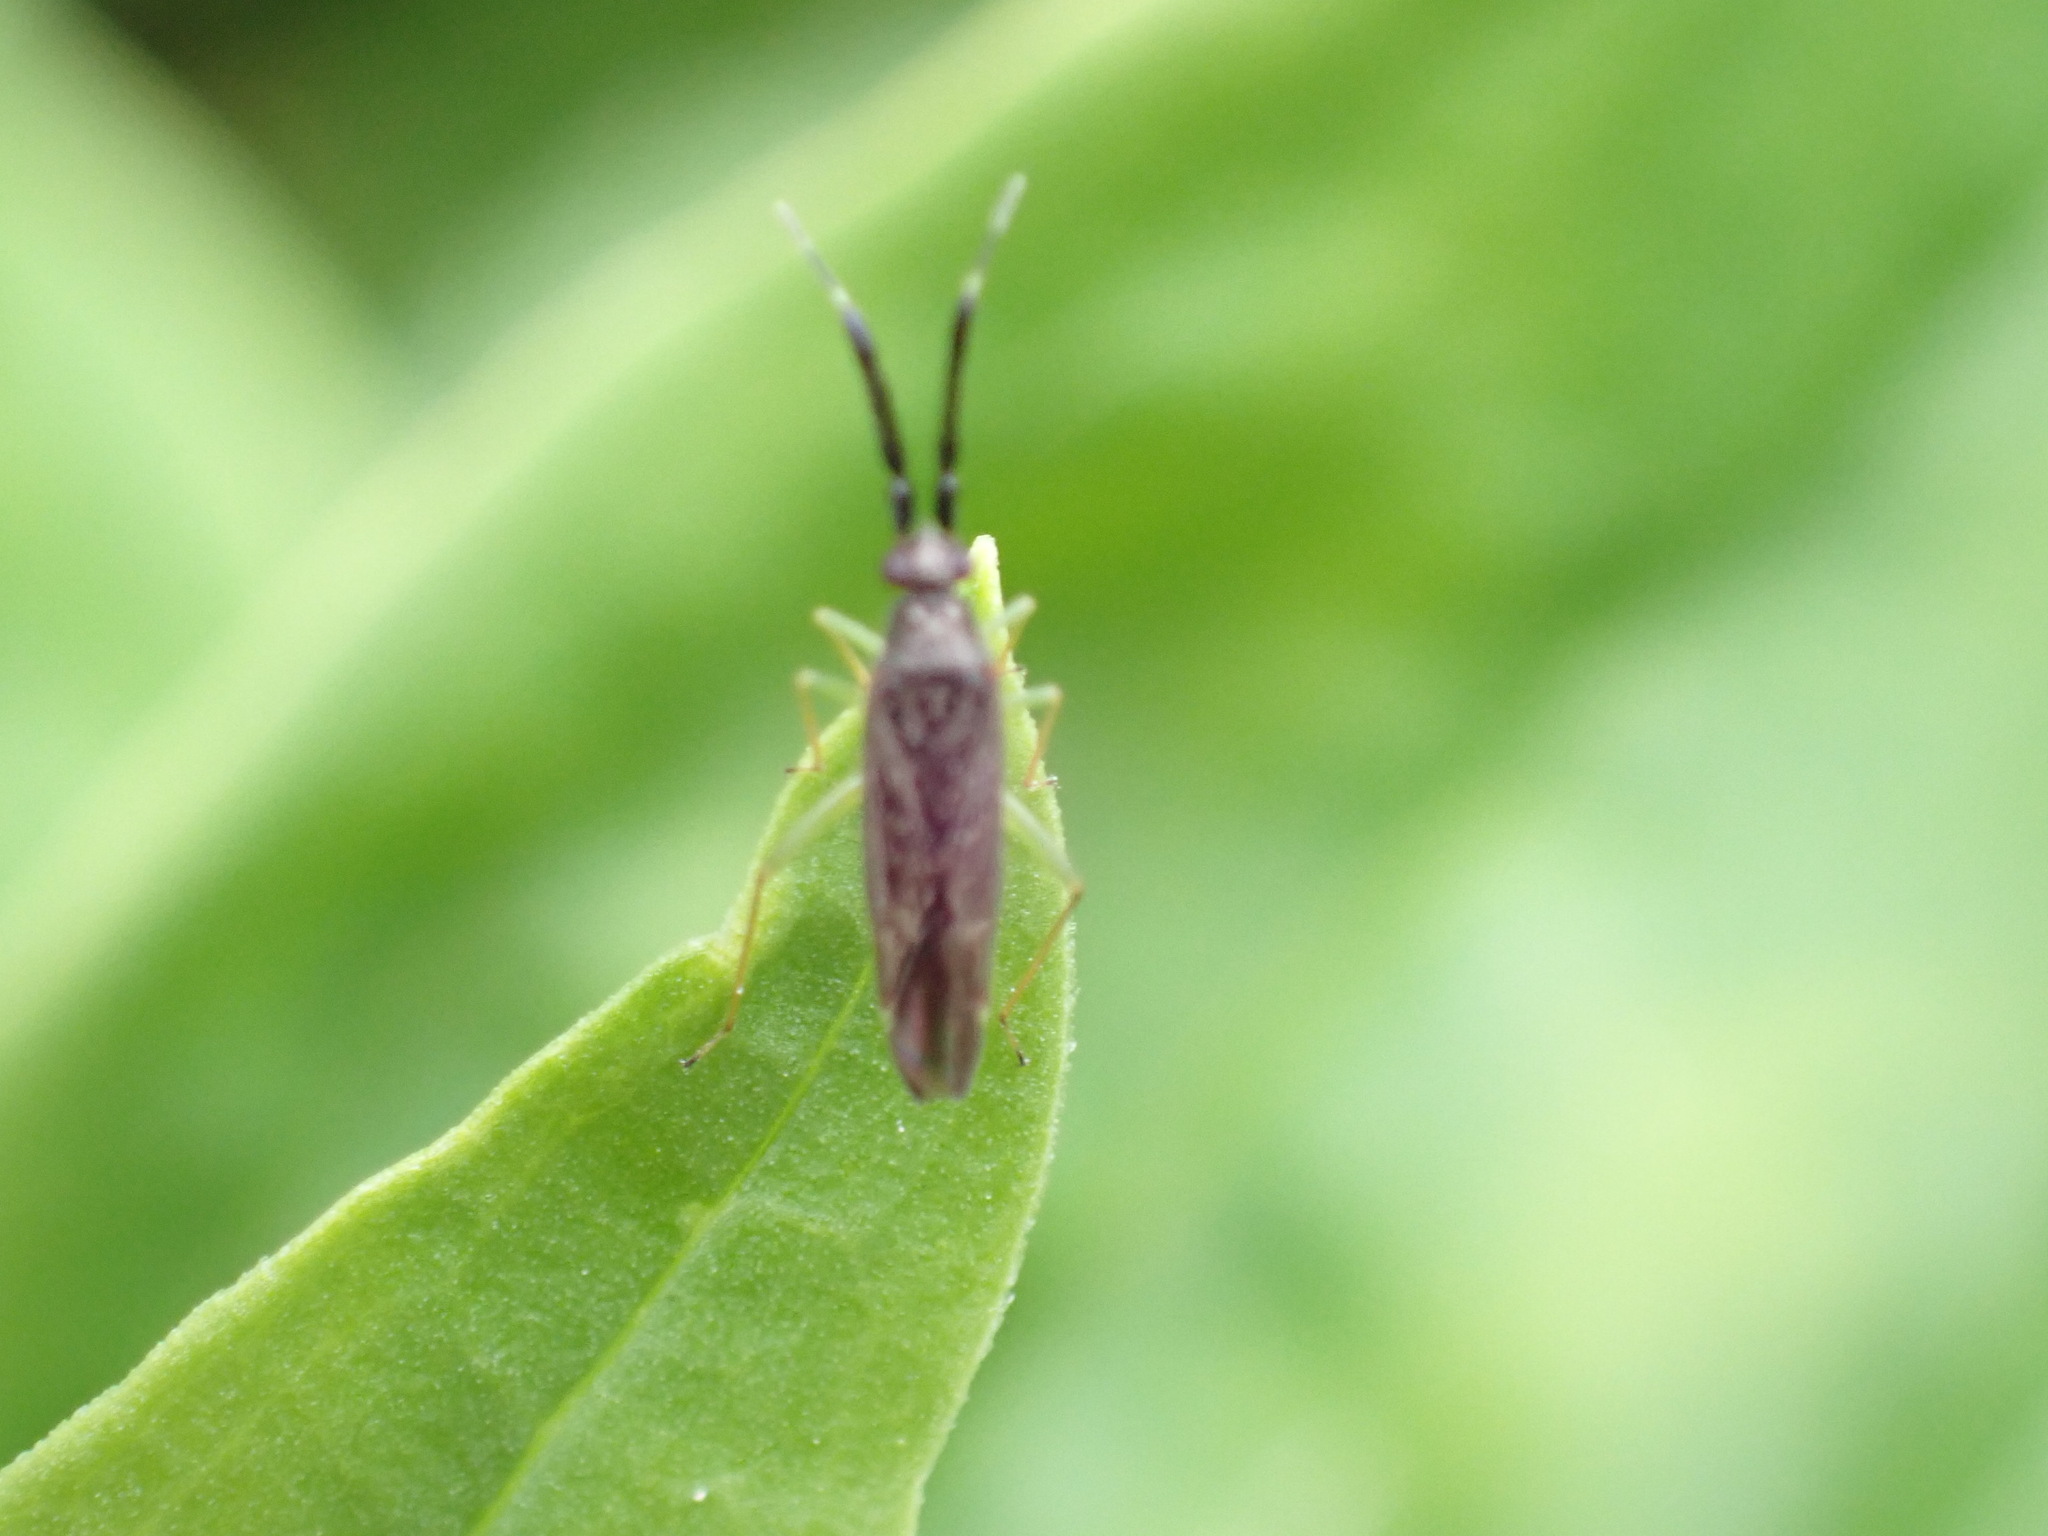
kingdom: Animalia
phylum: Arthropoda
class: Insecta
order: Hemiptera
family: Miridae
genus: Heterotoma
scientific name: Heterotoma planicornis
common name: Plant bug
